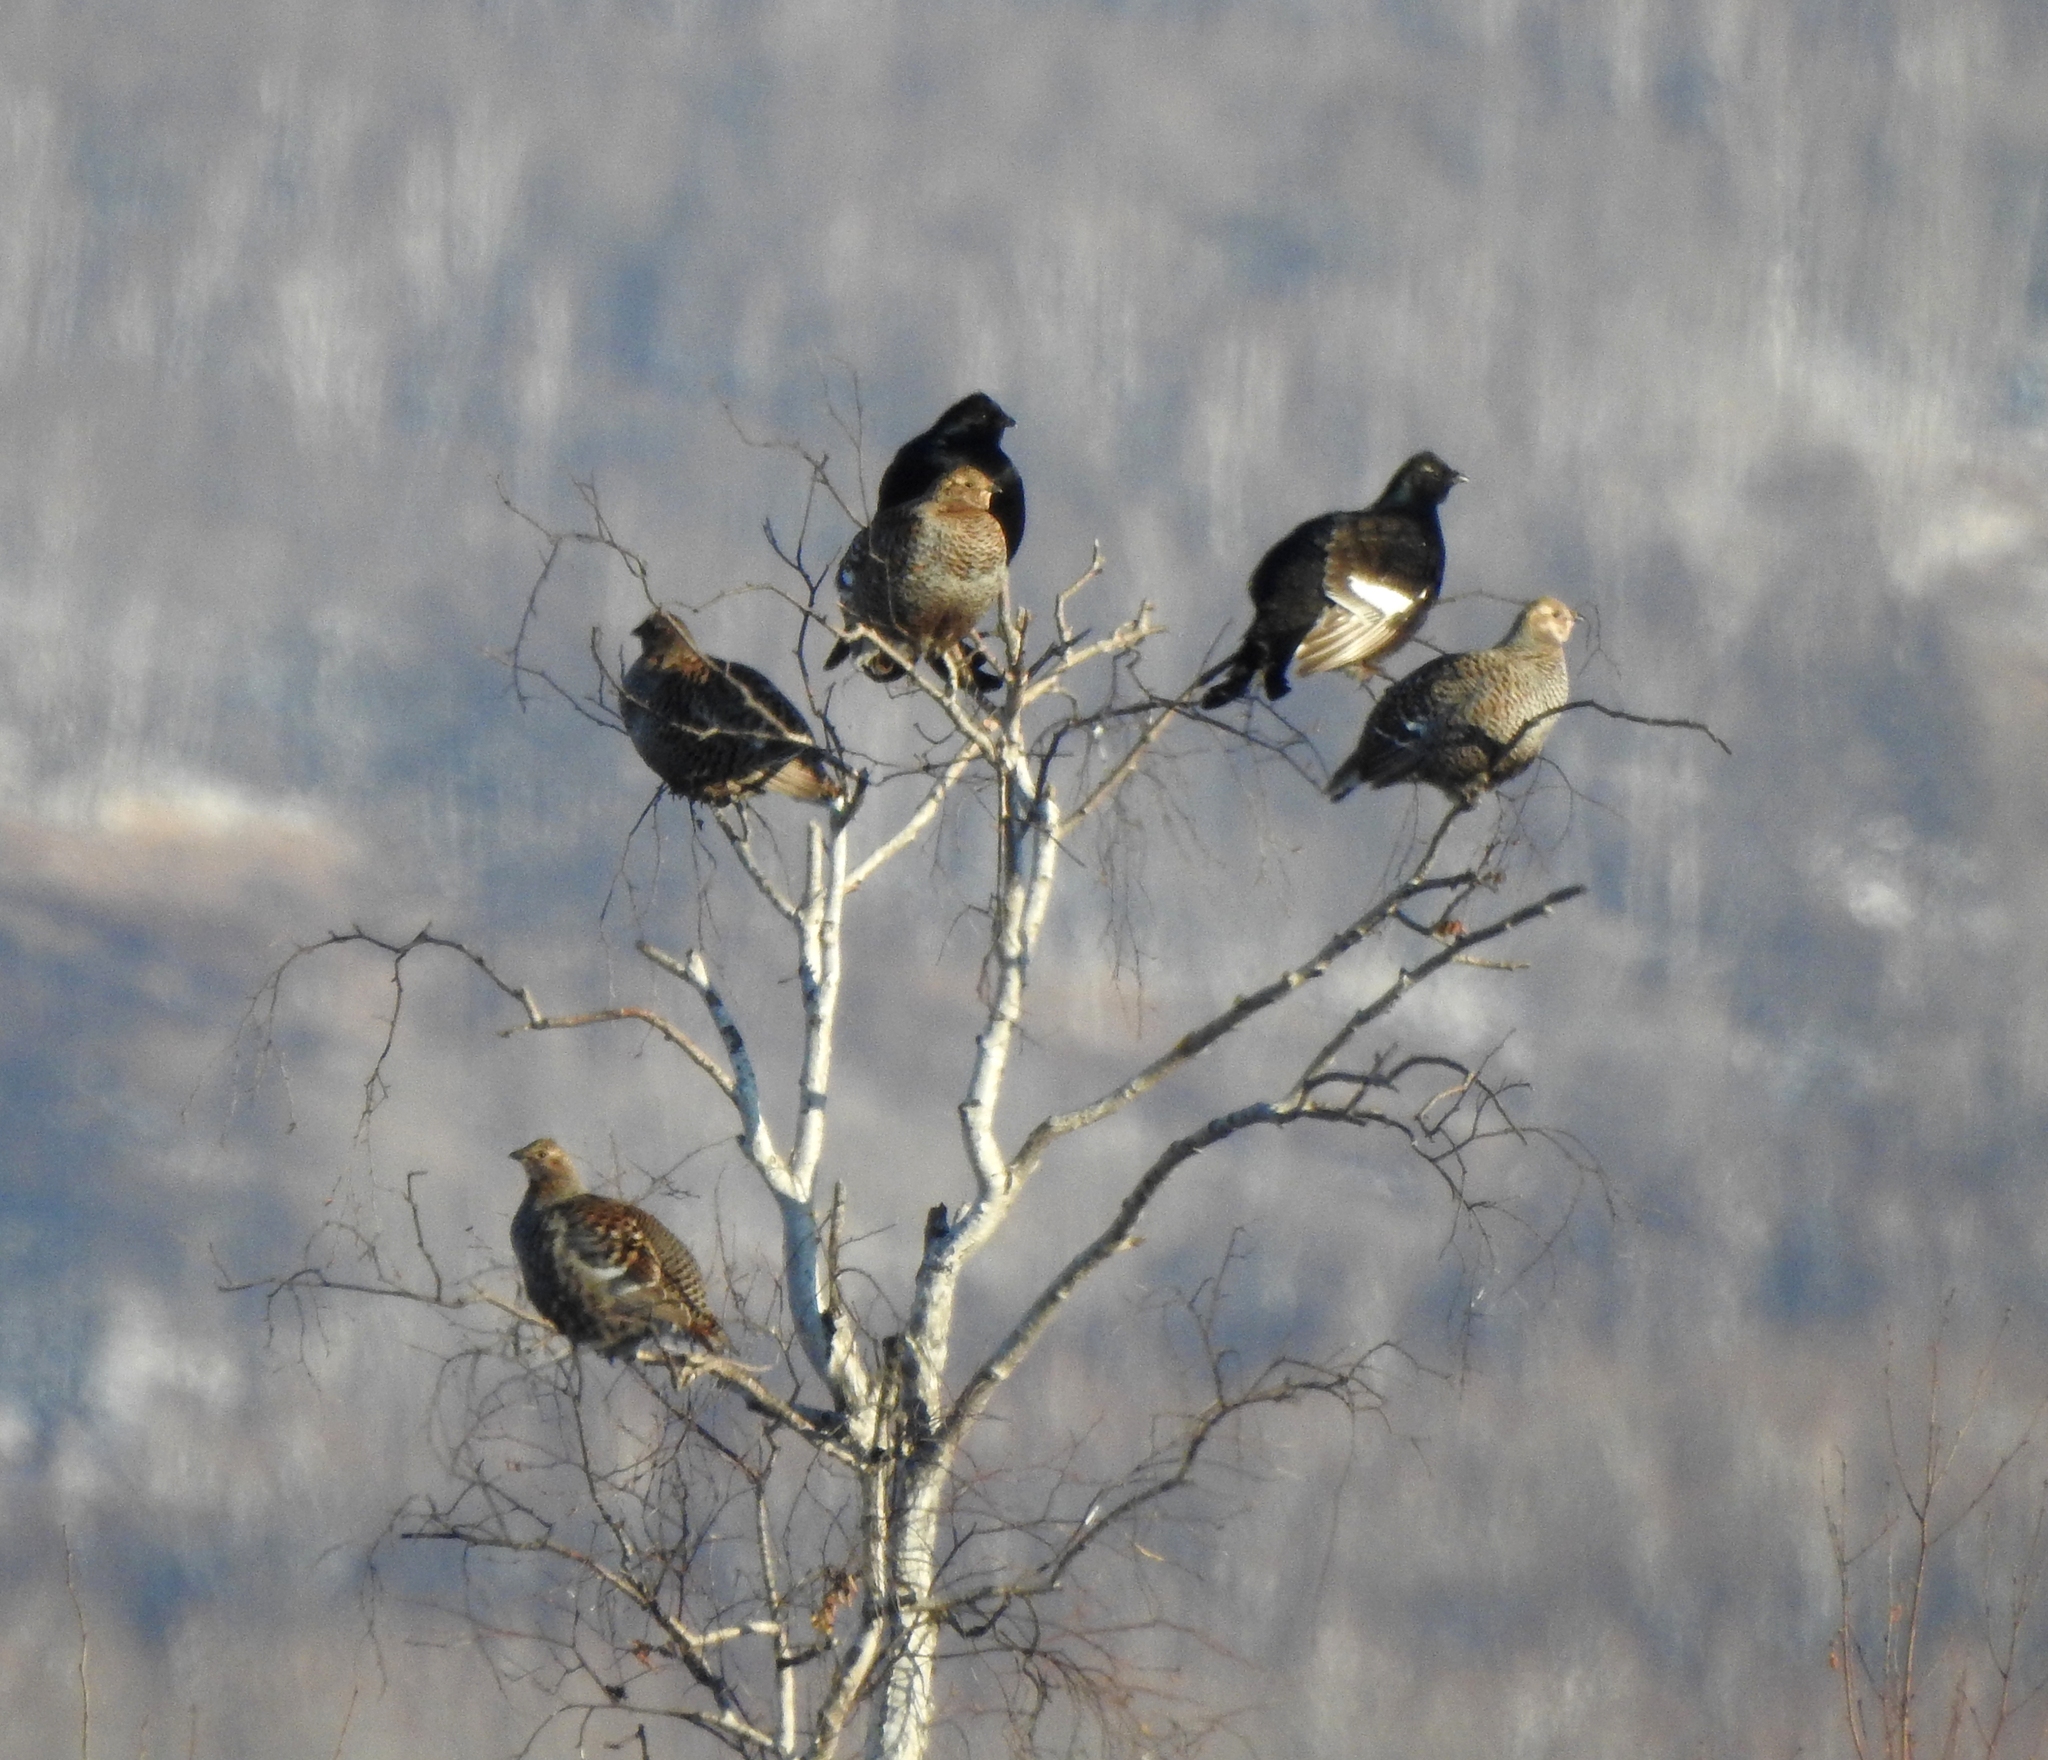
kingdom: Animalia
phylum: Chordata
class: Aves
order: Galliformes
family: Phasianidae
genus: Lyrurus
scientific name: Lyrurus tetrix
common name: Black grouse
